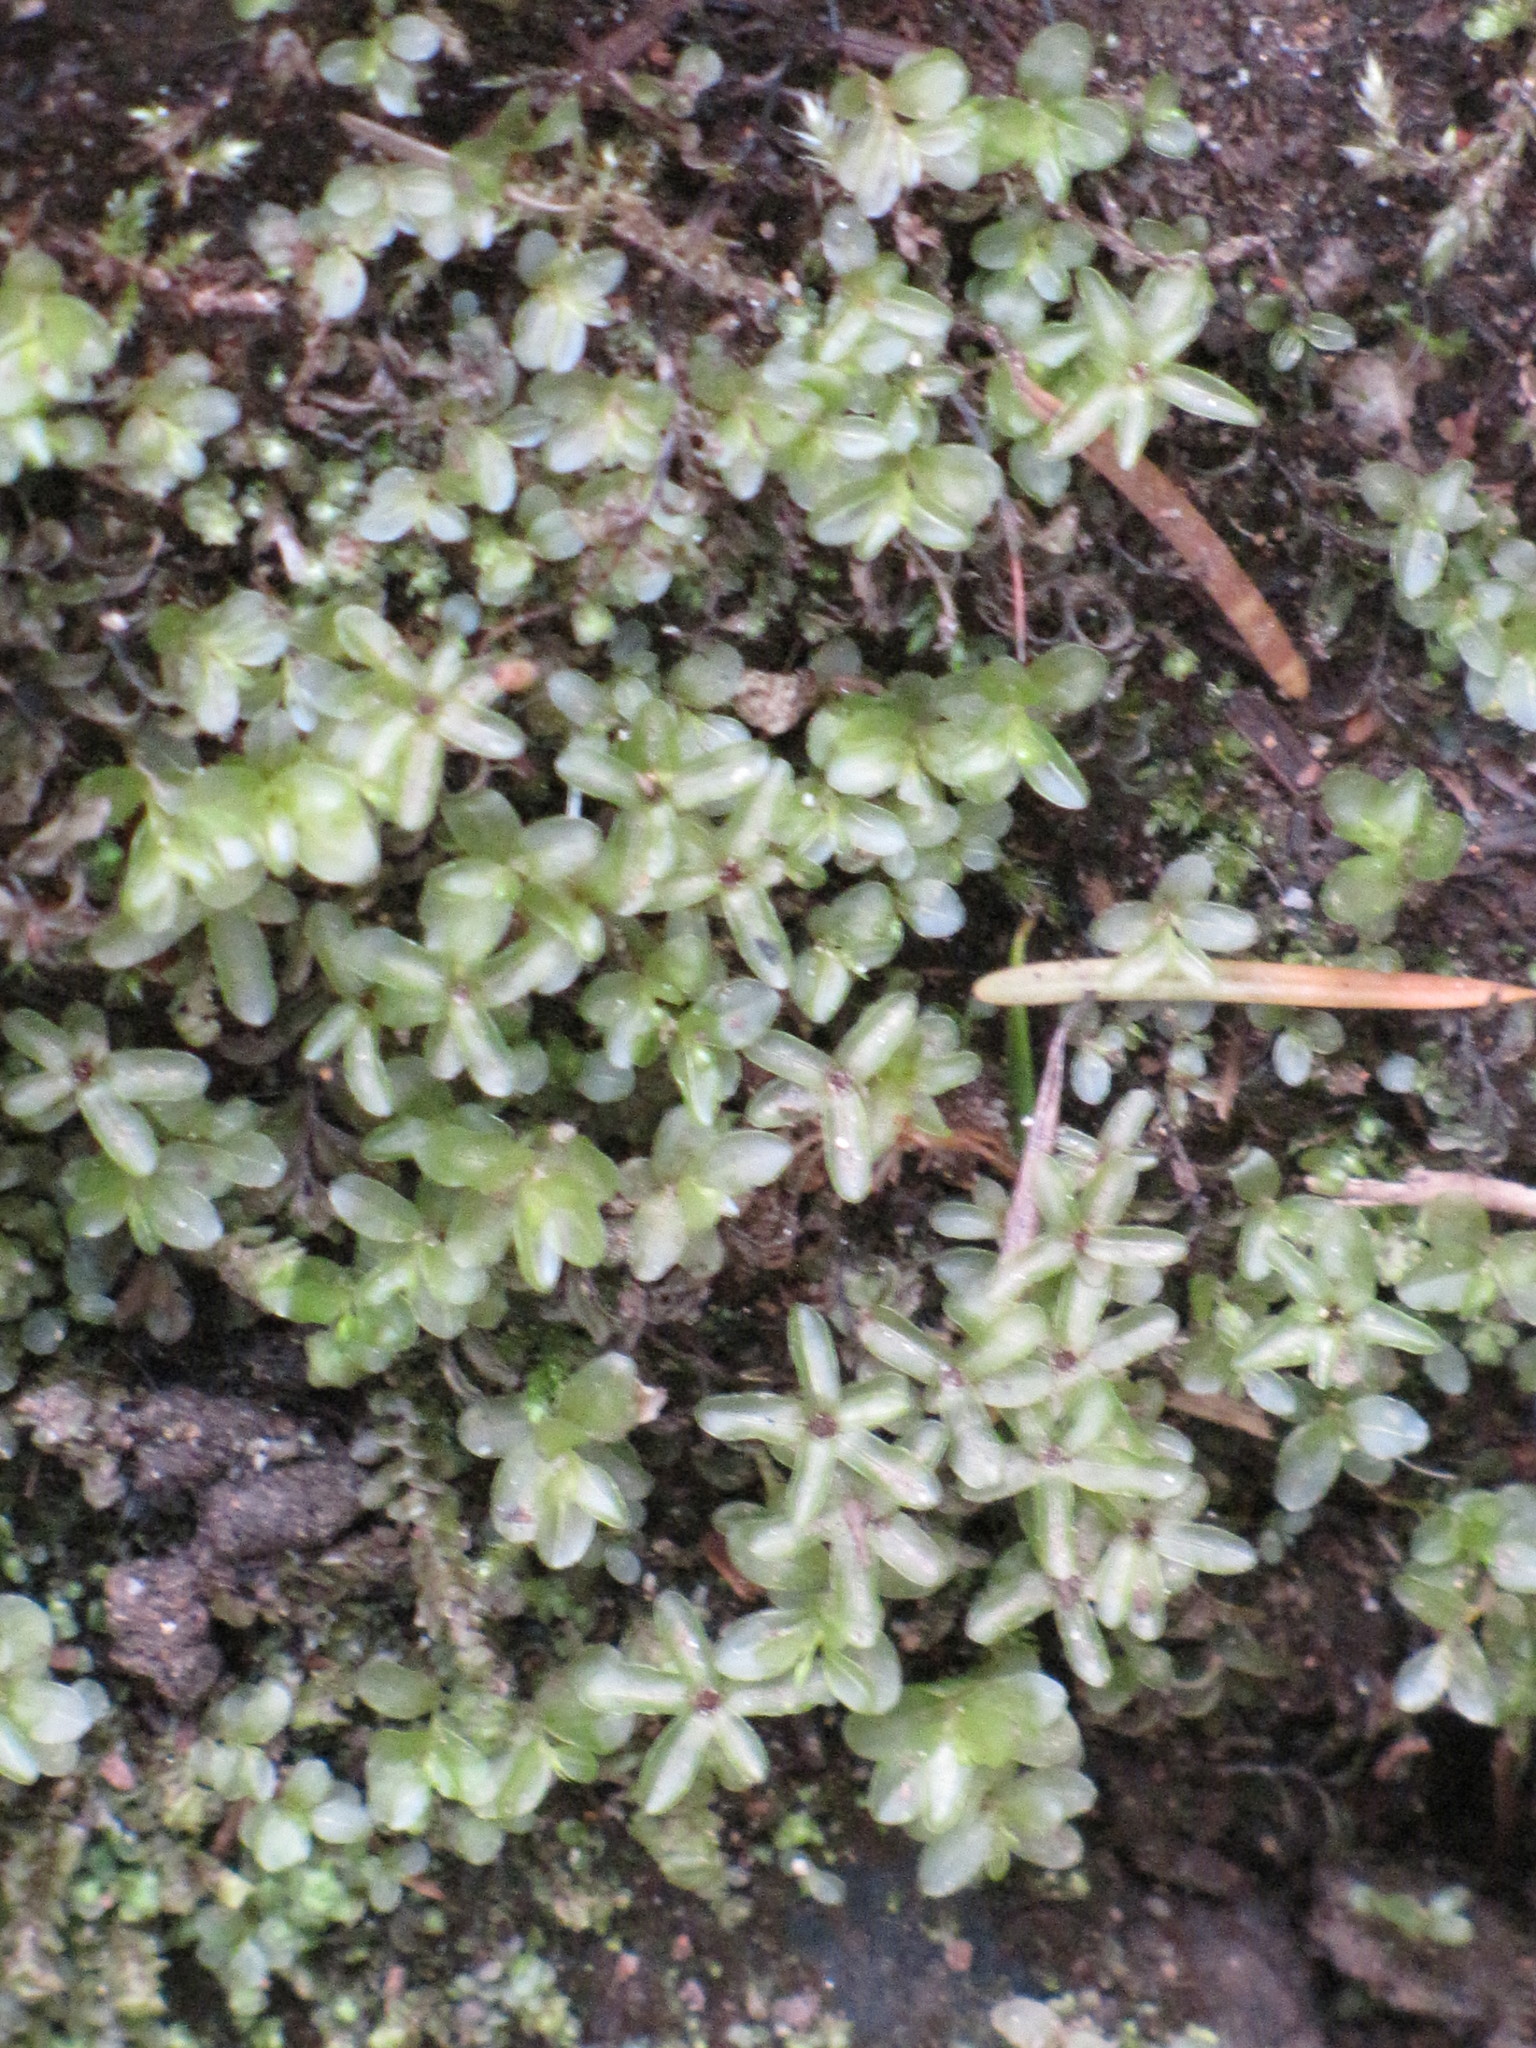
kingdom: Plantae
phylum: Bryophyta
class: Bryopsida
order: Bryales
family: Mniaceae
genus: Rhizomnium
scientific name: Rhizomnium punctatum
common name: Dotted leafy moss
